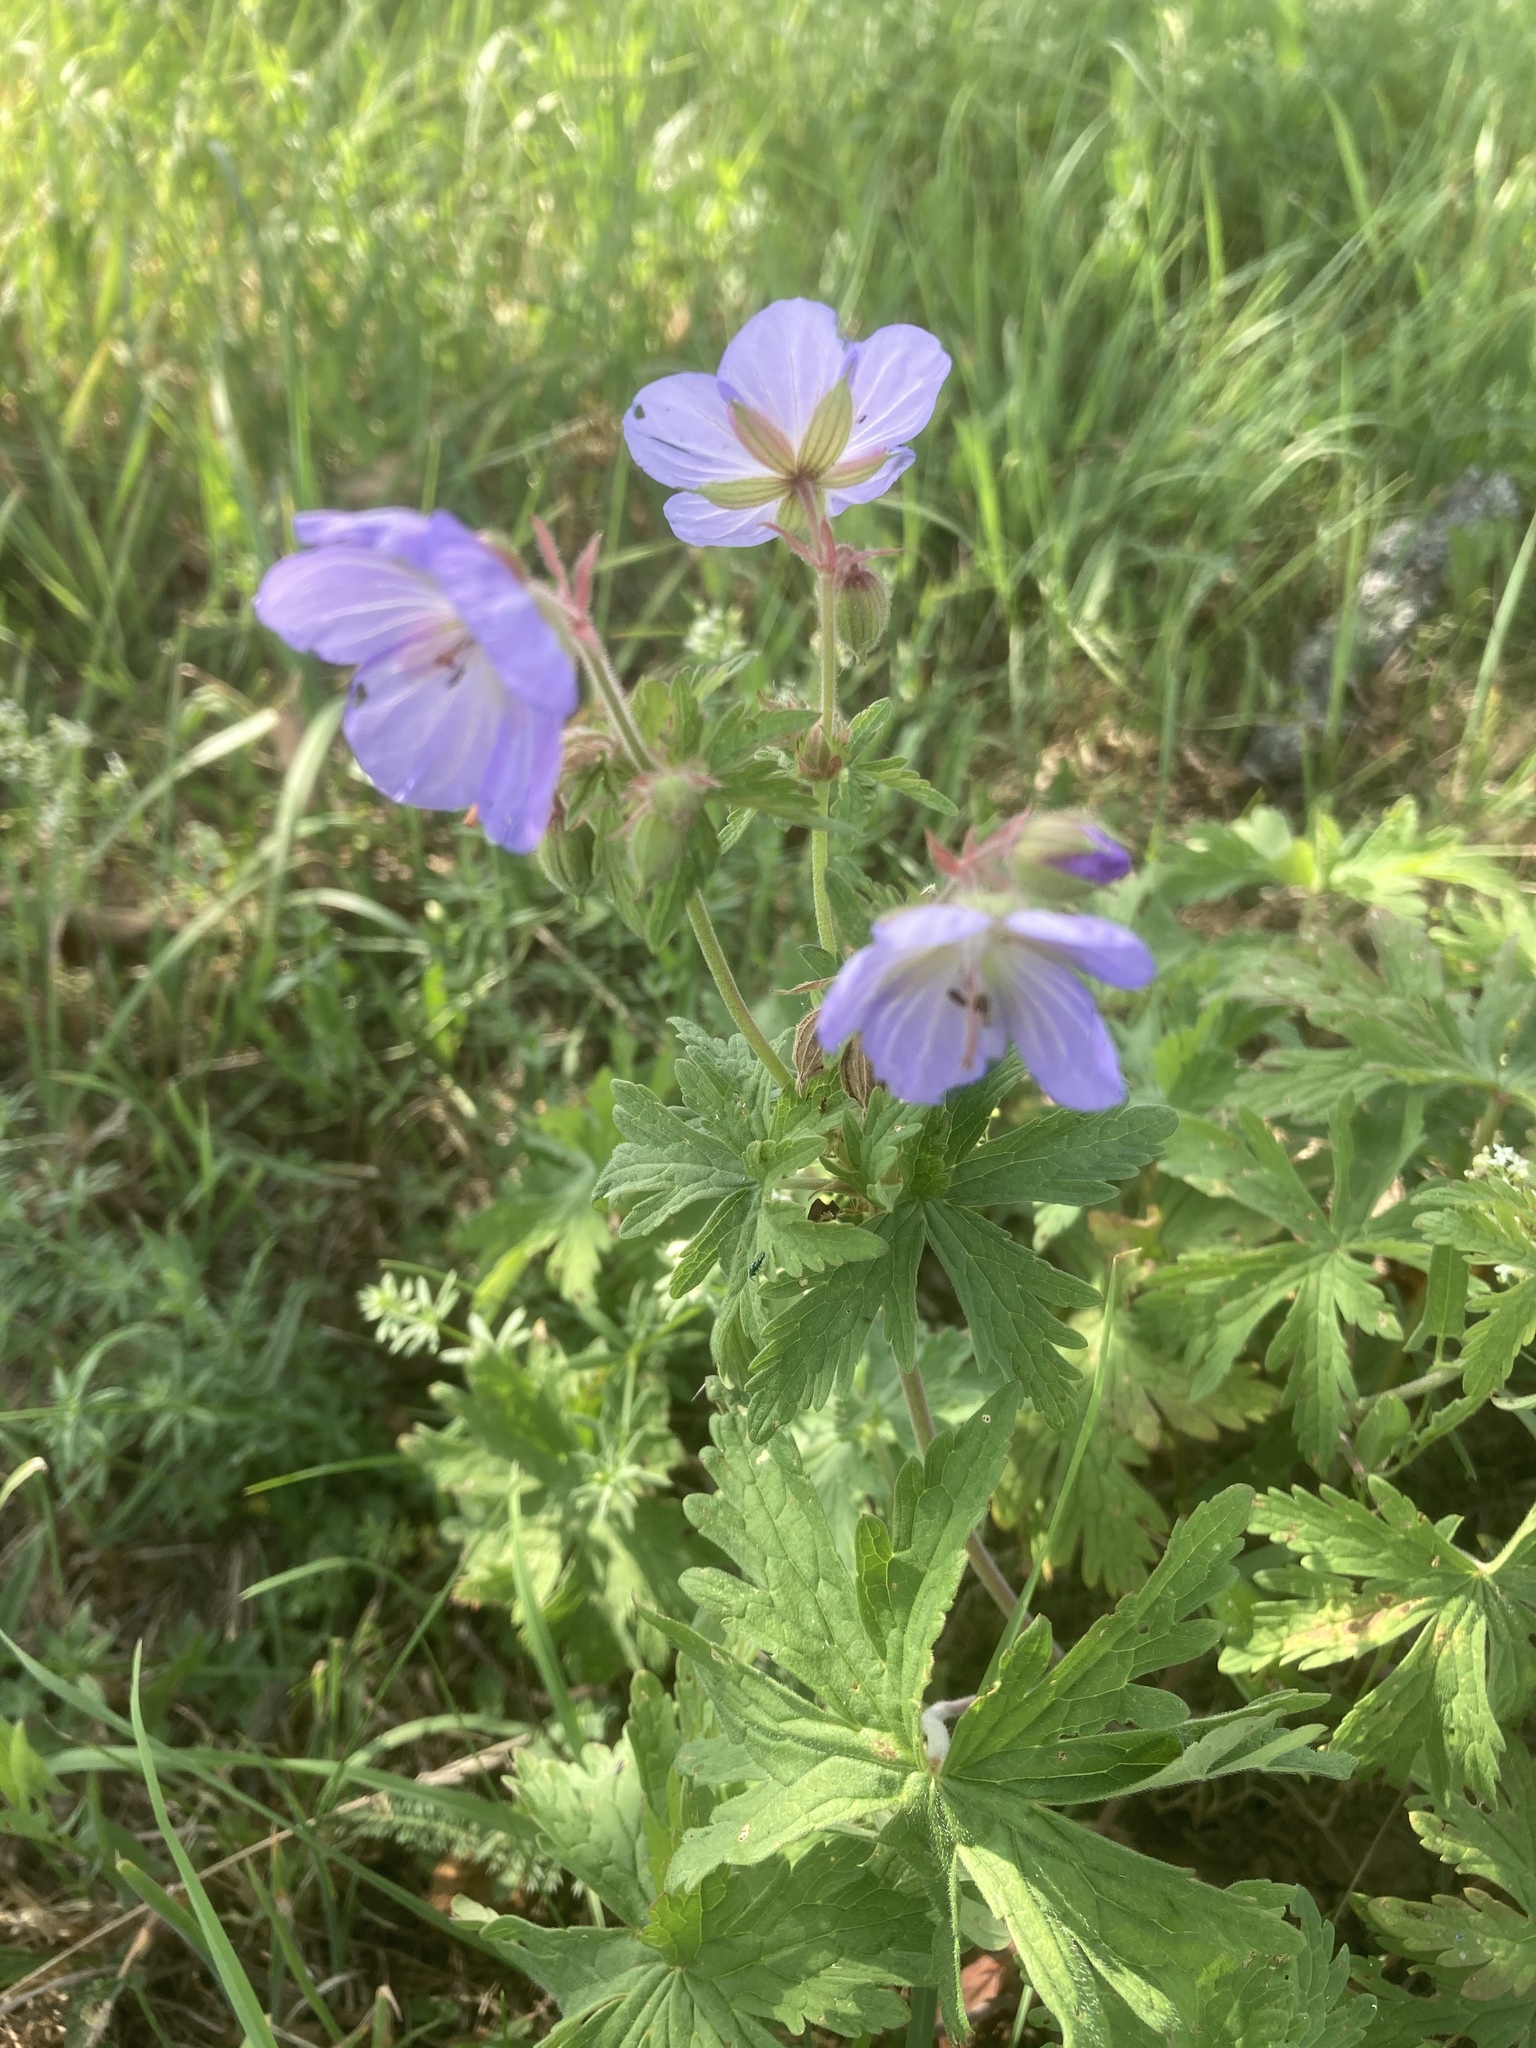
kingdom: Plantae
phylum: Tracheophyta
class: Magnoliopsida
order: Geraniales
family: Geraniaceae
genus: Geranium
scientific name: Geranium pratense
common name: Meadow crane's-bill
